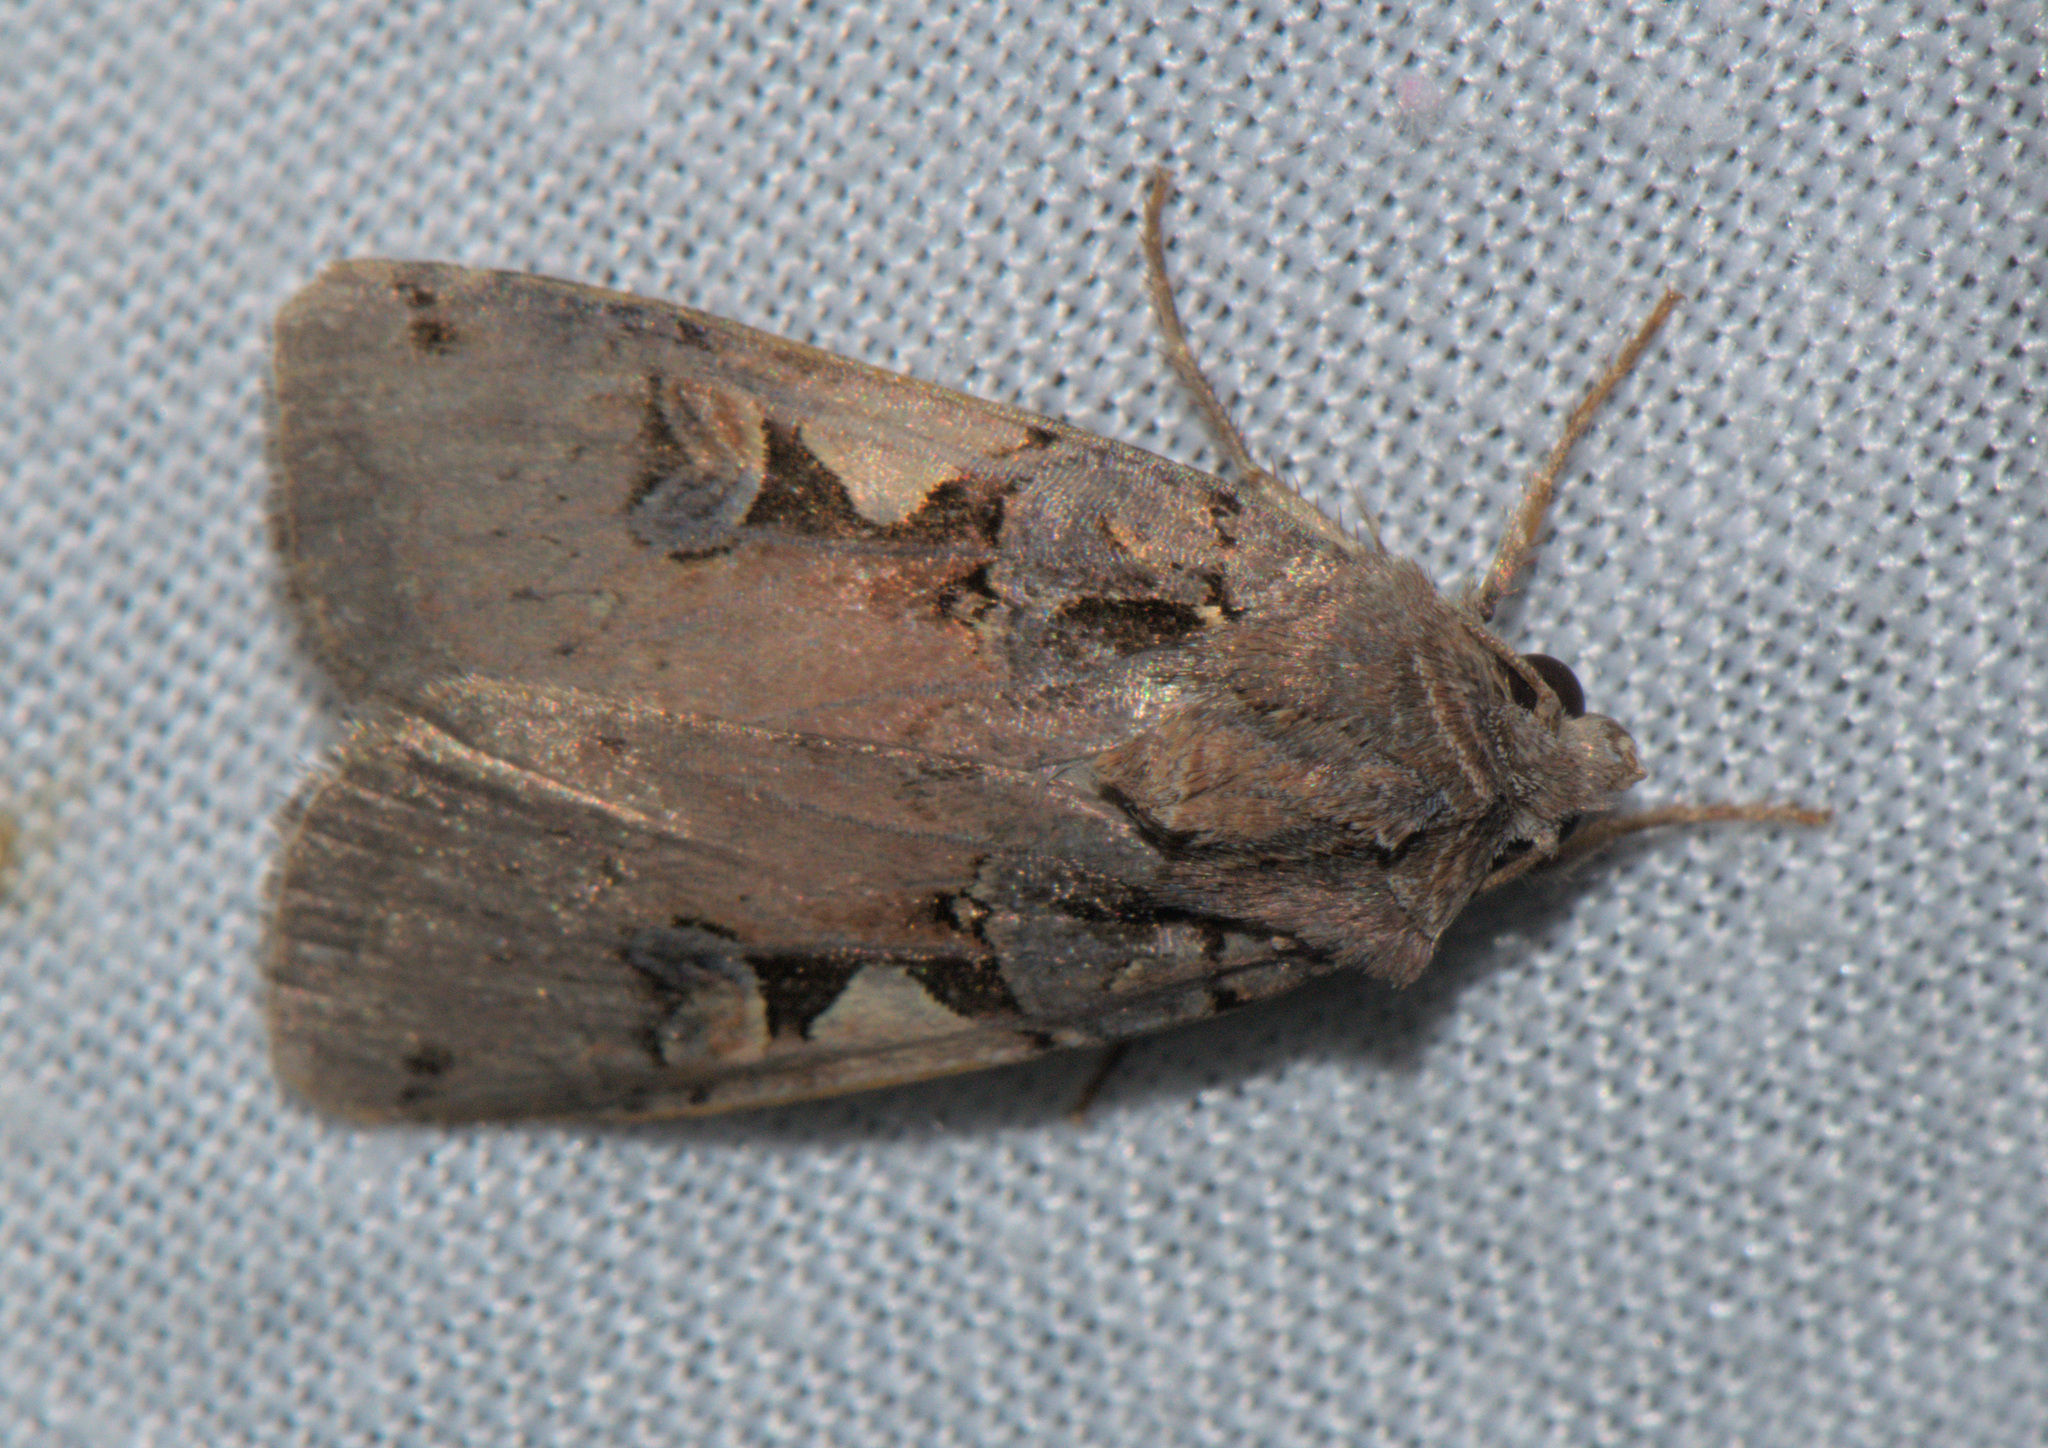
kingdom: Animalia
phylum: Arthropoda
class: Insecta
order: Lepidoptera
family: Noctuidae
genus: Xestia
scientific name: Xestia c-nigrum
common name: Setaceous hebrew character
